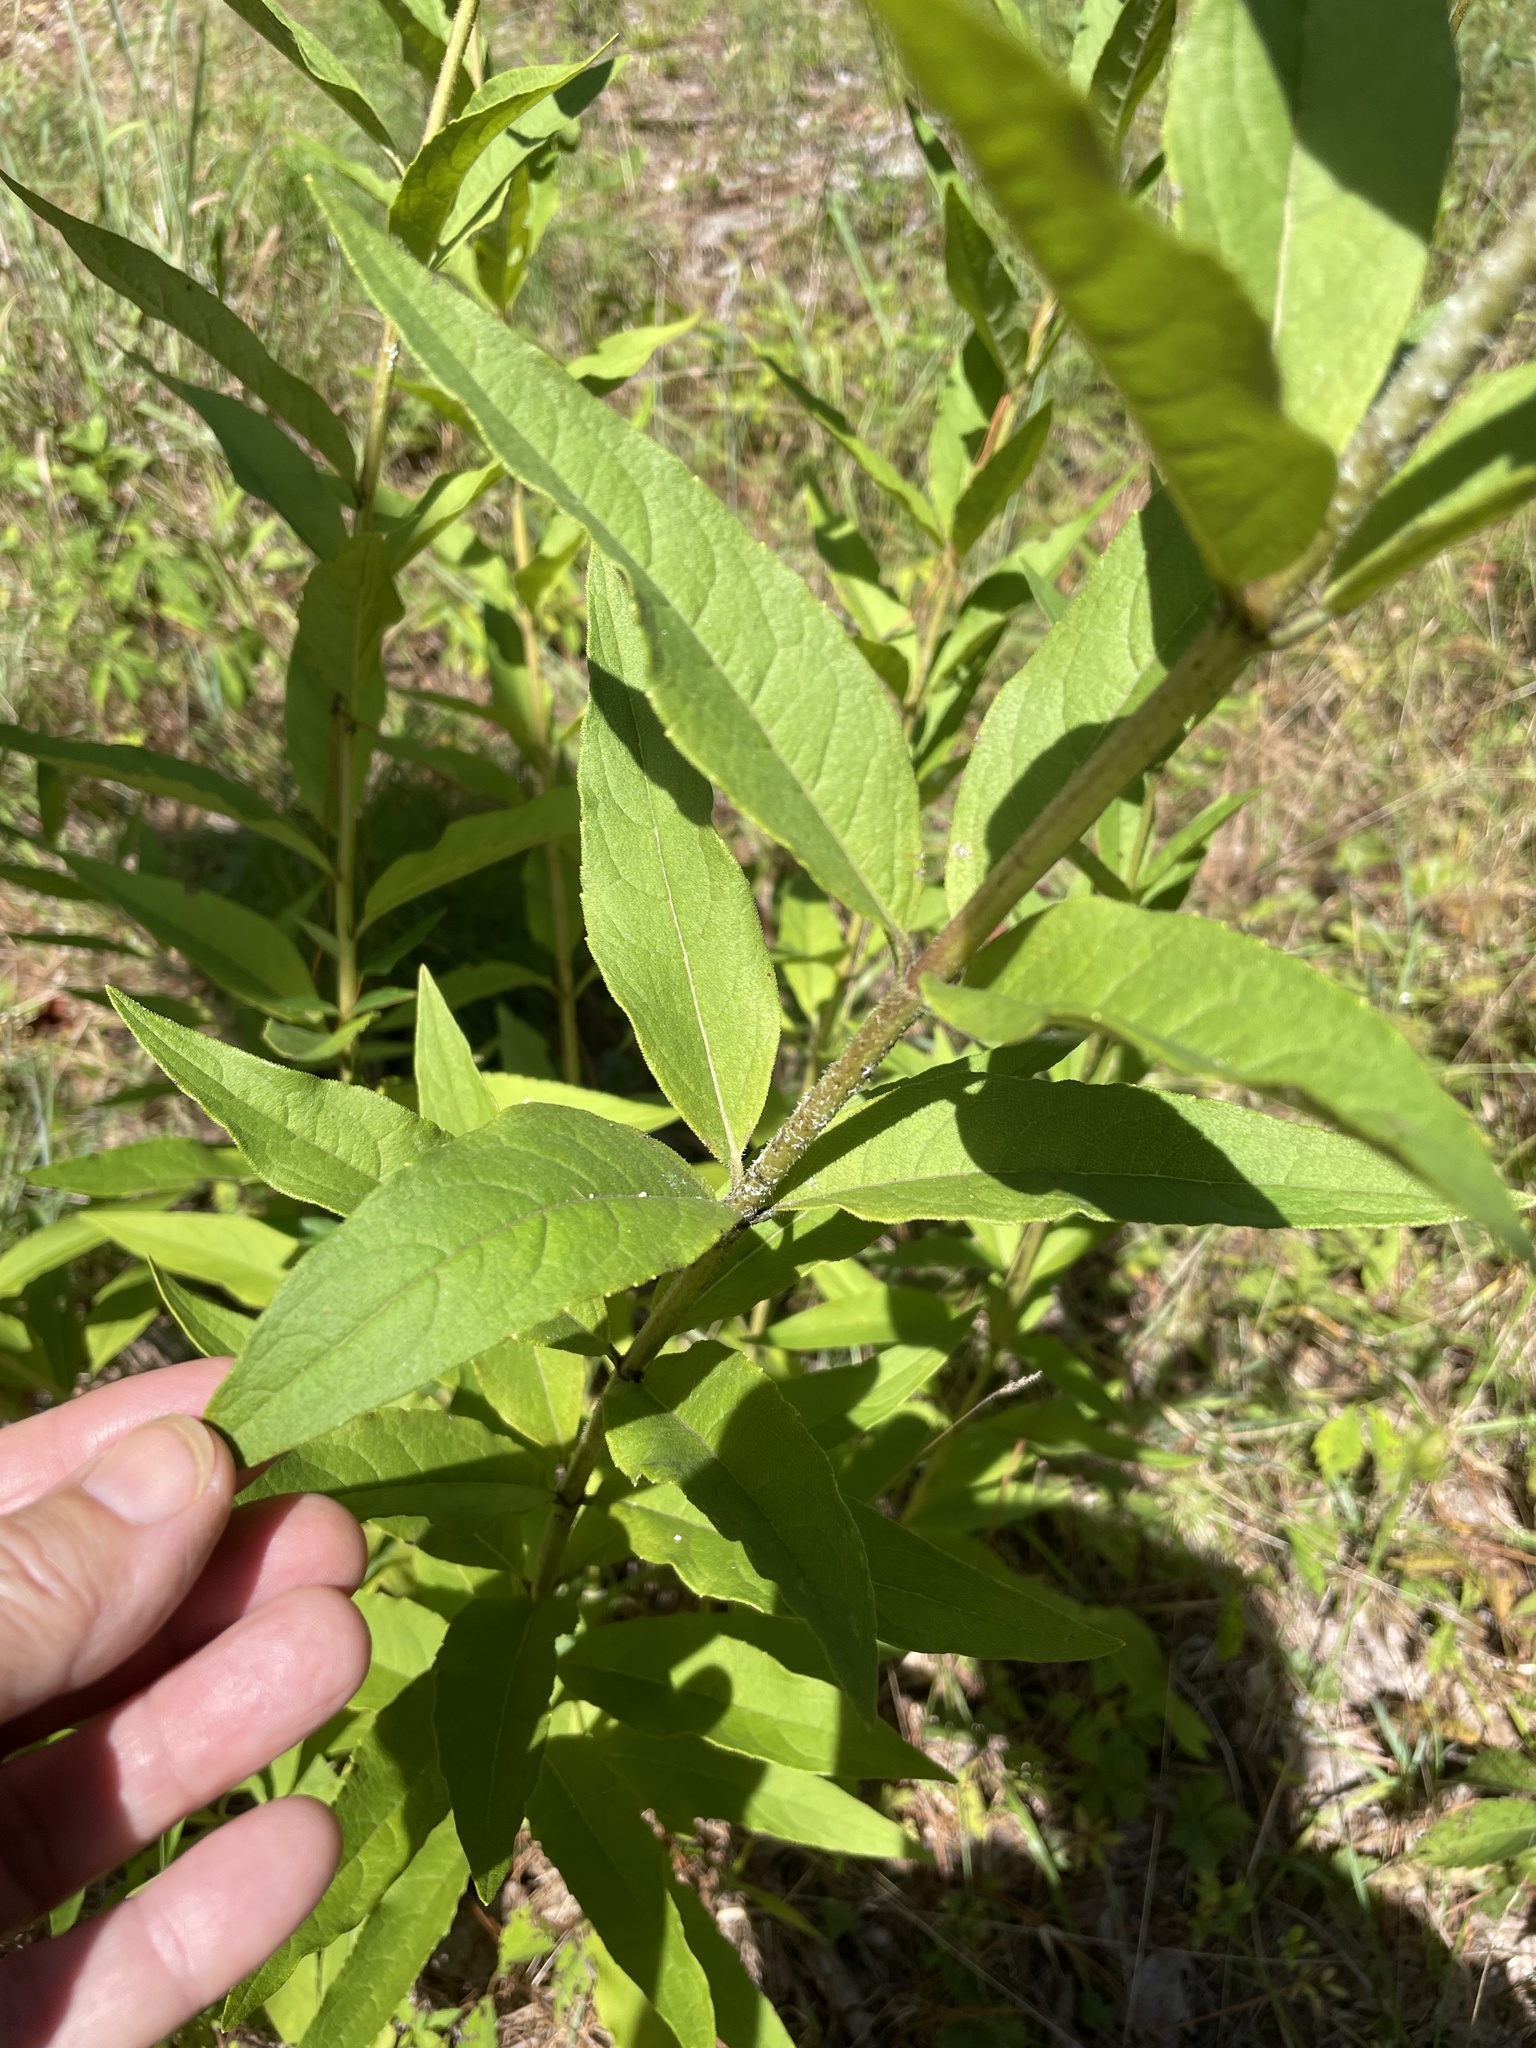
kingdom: Plantae
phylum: Tracheophyta
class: Magnoliopsida
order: Asterales
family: Asteraceae
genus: Silphium
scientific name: Silphium asteriscus
